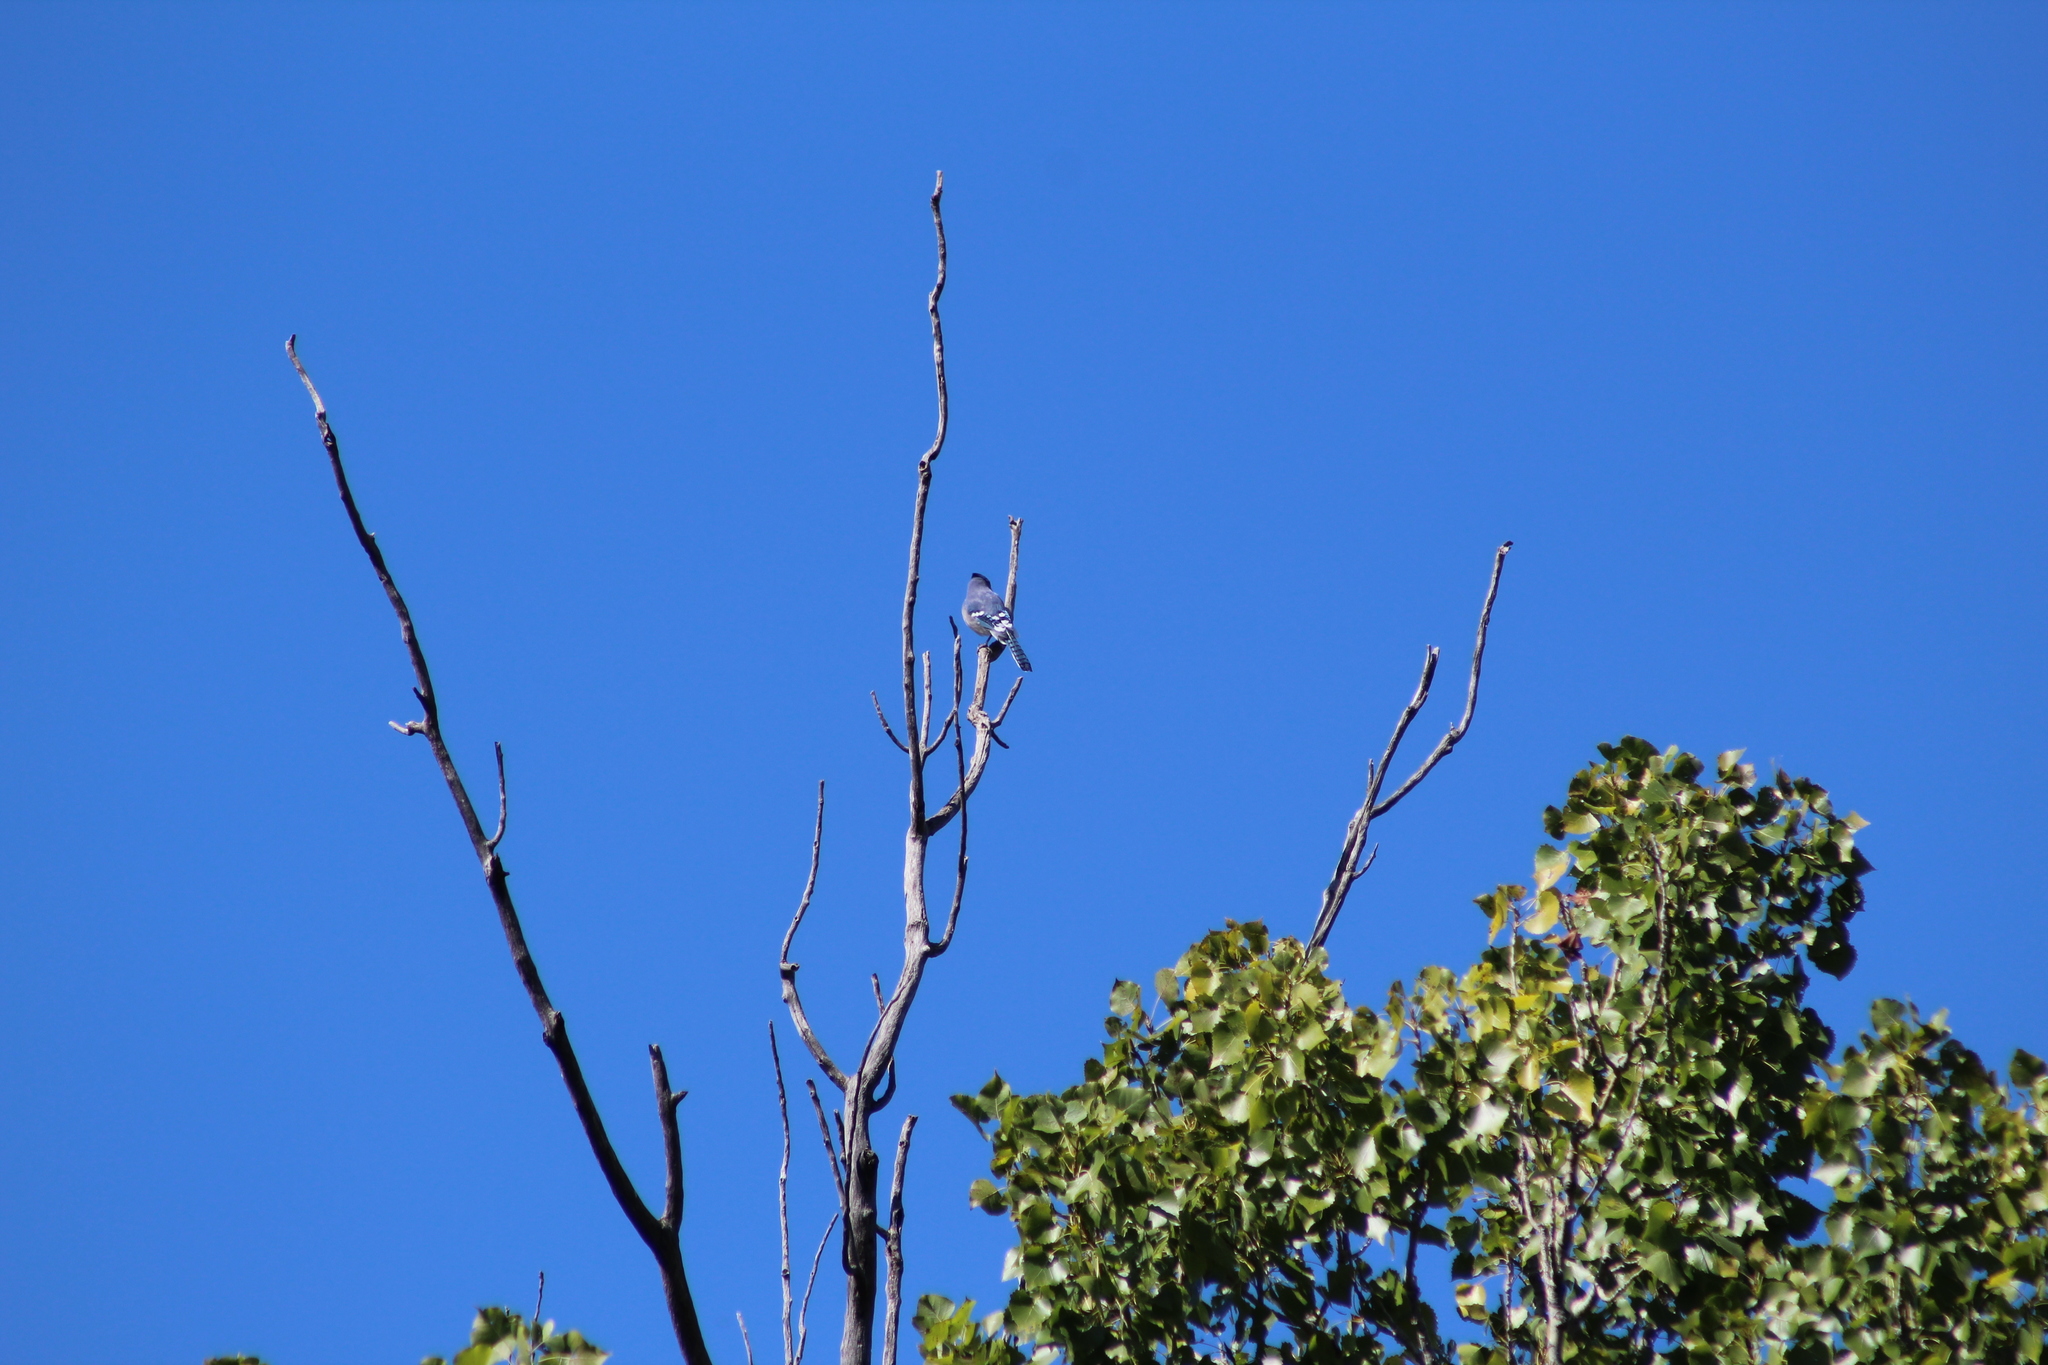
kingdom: Animalia
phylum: Chordata
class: Aves
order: Passeriformes
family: Corvidae
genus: Cyanocitta
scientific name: Cyanocitta cristata
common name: Blue jay
